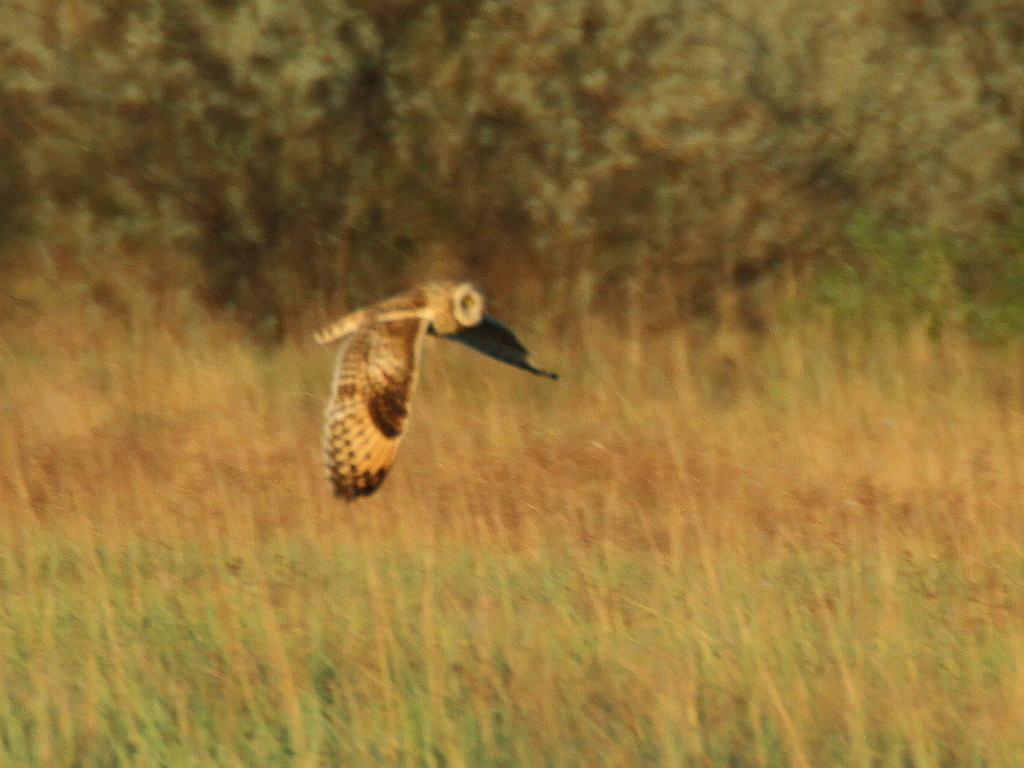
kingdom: Animalia
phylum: Chordata
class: Aves
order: Strigiformes
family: Strigidae
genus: Asio
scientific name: Asio flammeus
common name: Short-eared owl
